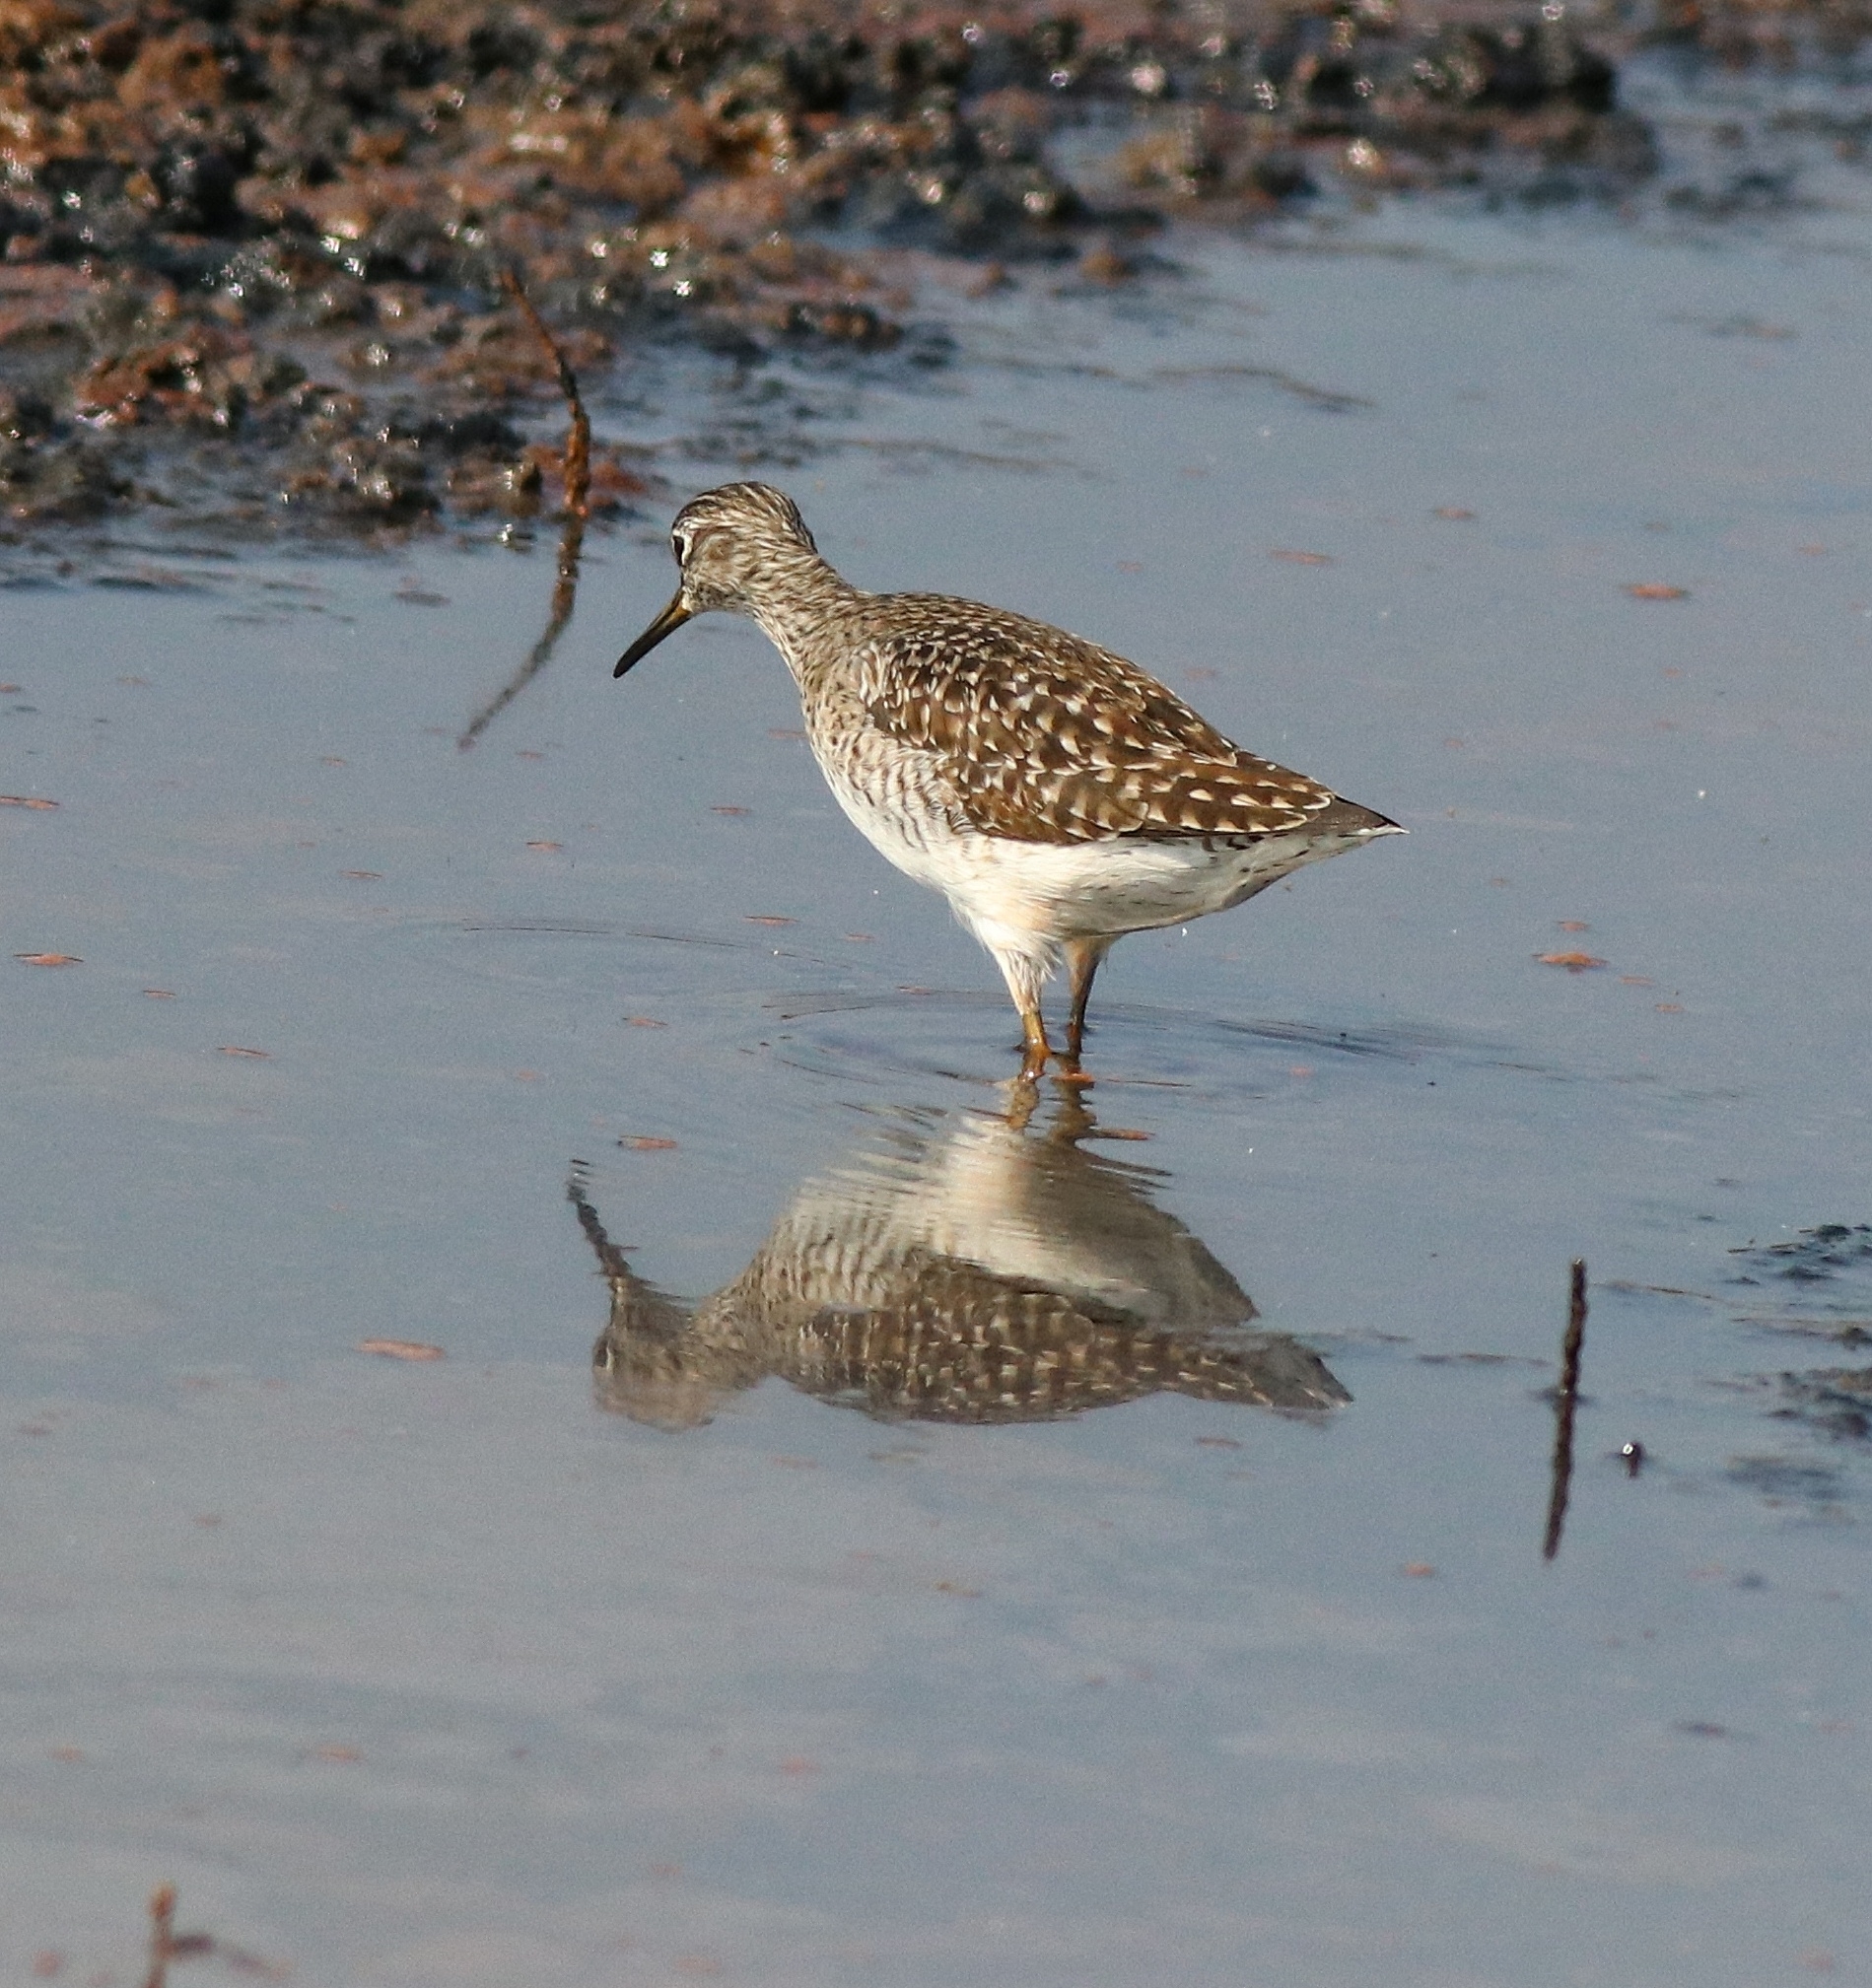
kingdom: Animalia
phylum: Chordata
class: Aves
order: Charadriiformes
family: Scolopacidae
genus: Tringa
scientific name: Tringa glareola
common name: Wood sandpiper
